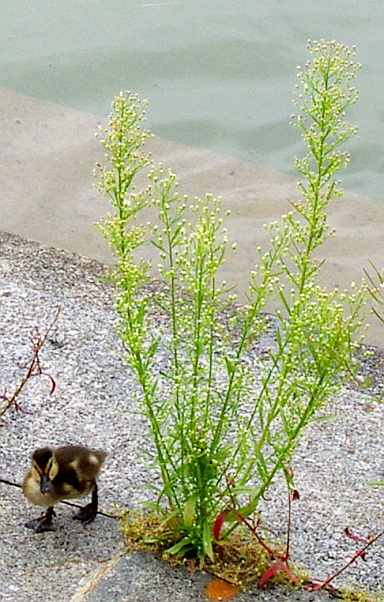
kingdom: Plantae
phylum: Tracheophyta
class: Magnoliopsida
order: Asterales
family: Asteraceae
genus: Erigeron
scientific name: Erigeron canadensis
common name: Canadian fleabane
